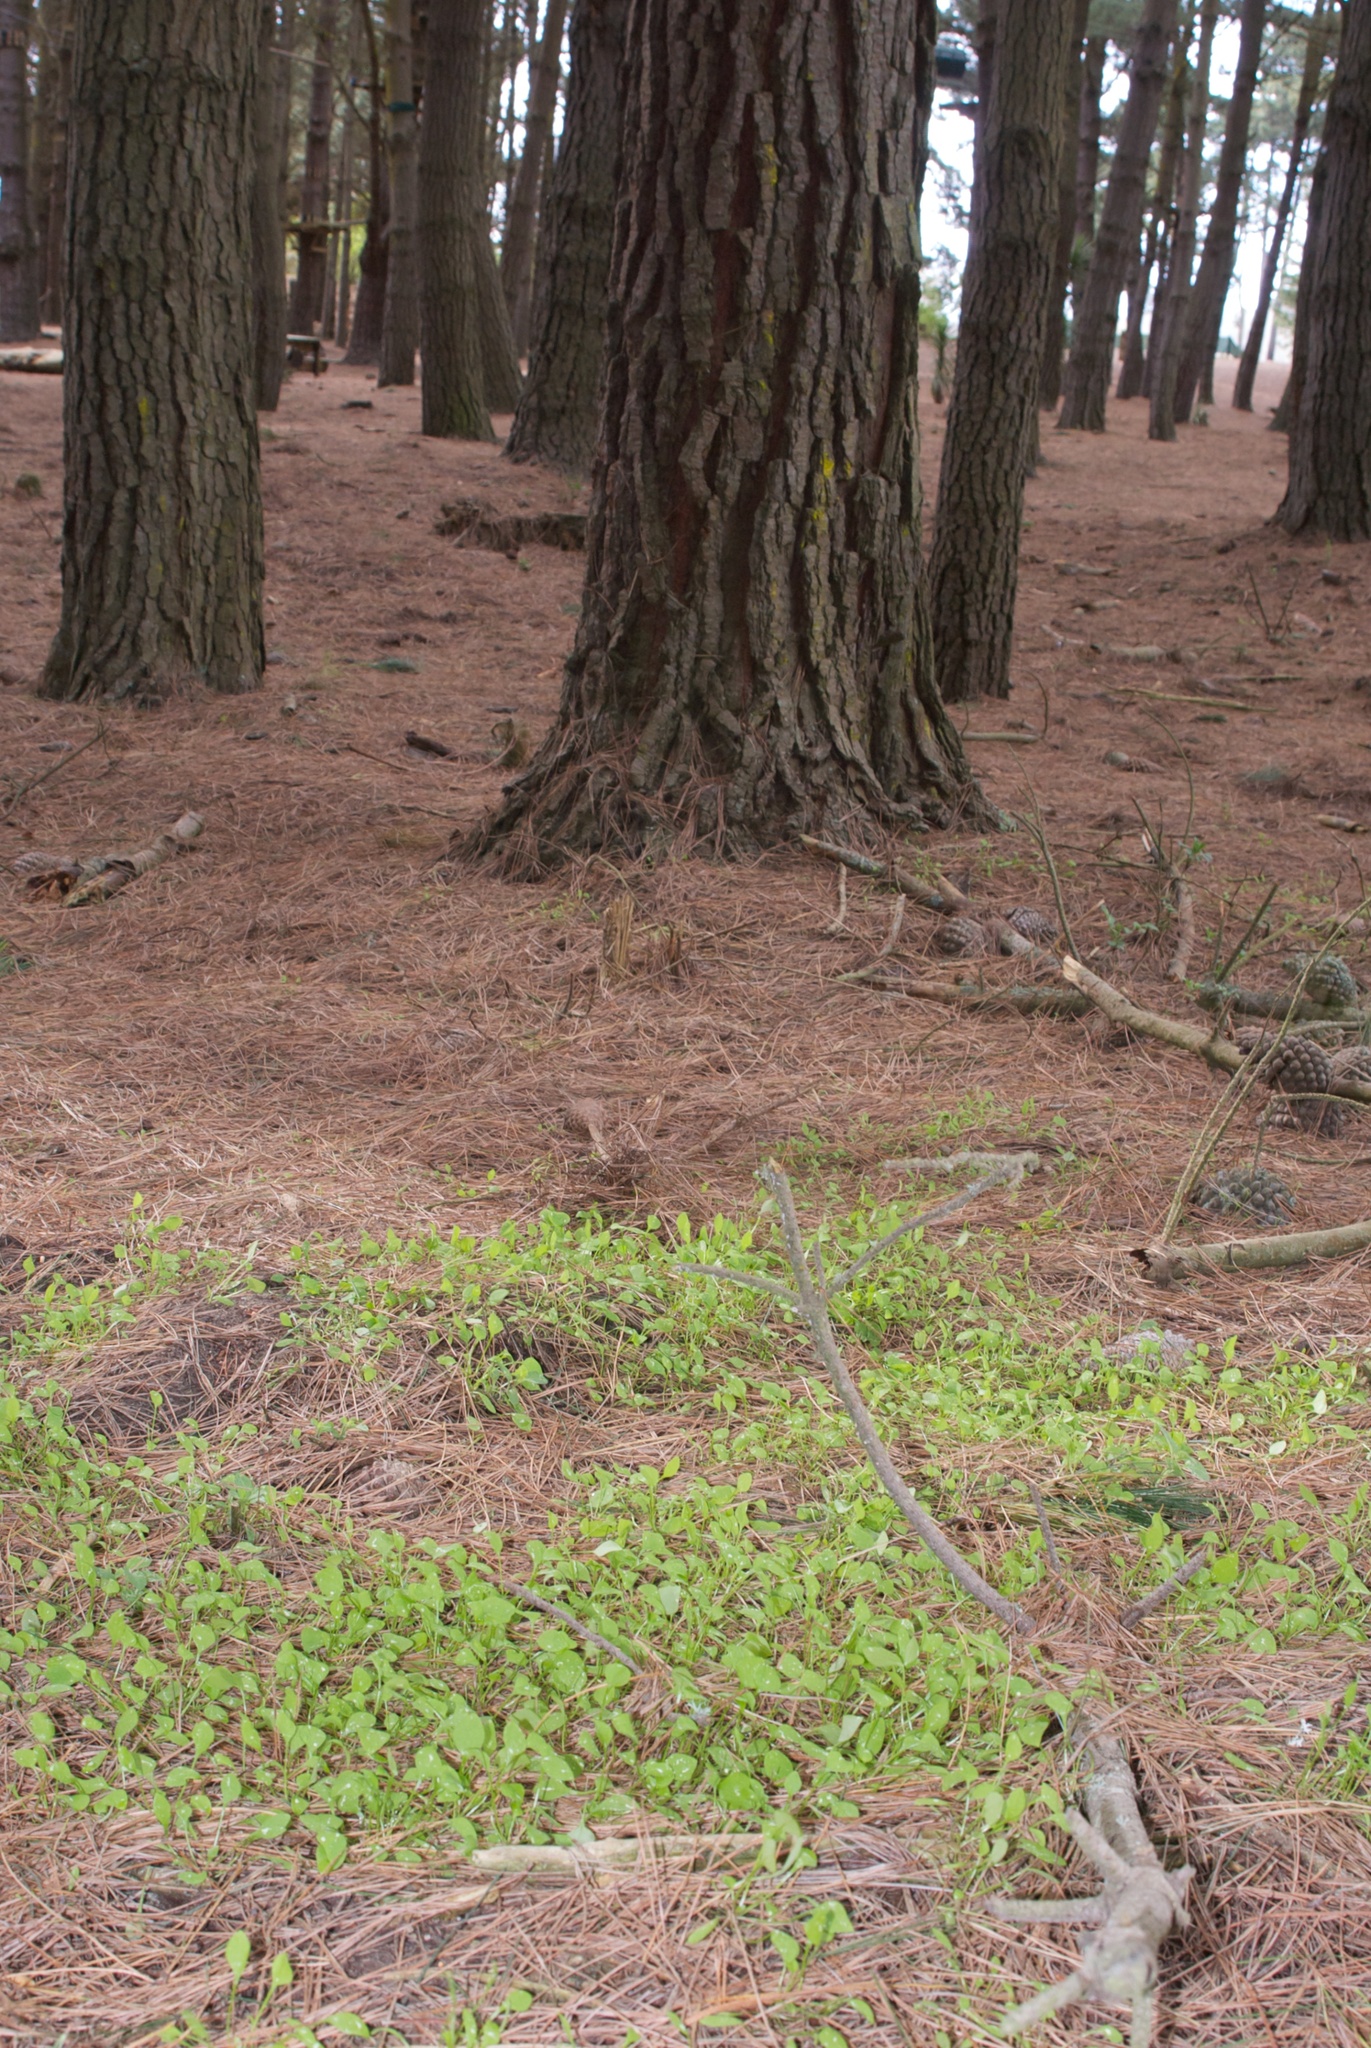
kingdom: Plantae
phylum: Tracheophyta
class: Magnoliopsida
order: Caryophyllales
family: Montiaceae
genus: Claytonia
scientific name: Claytonia perfoliata
